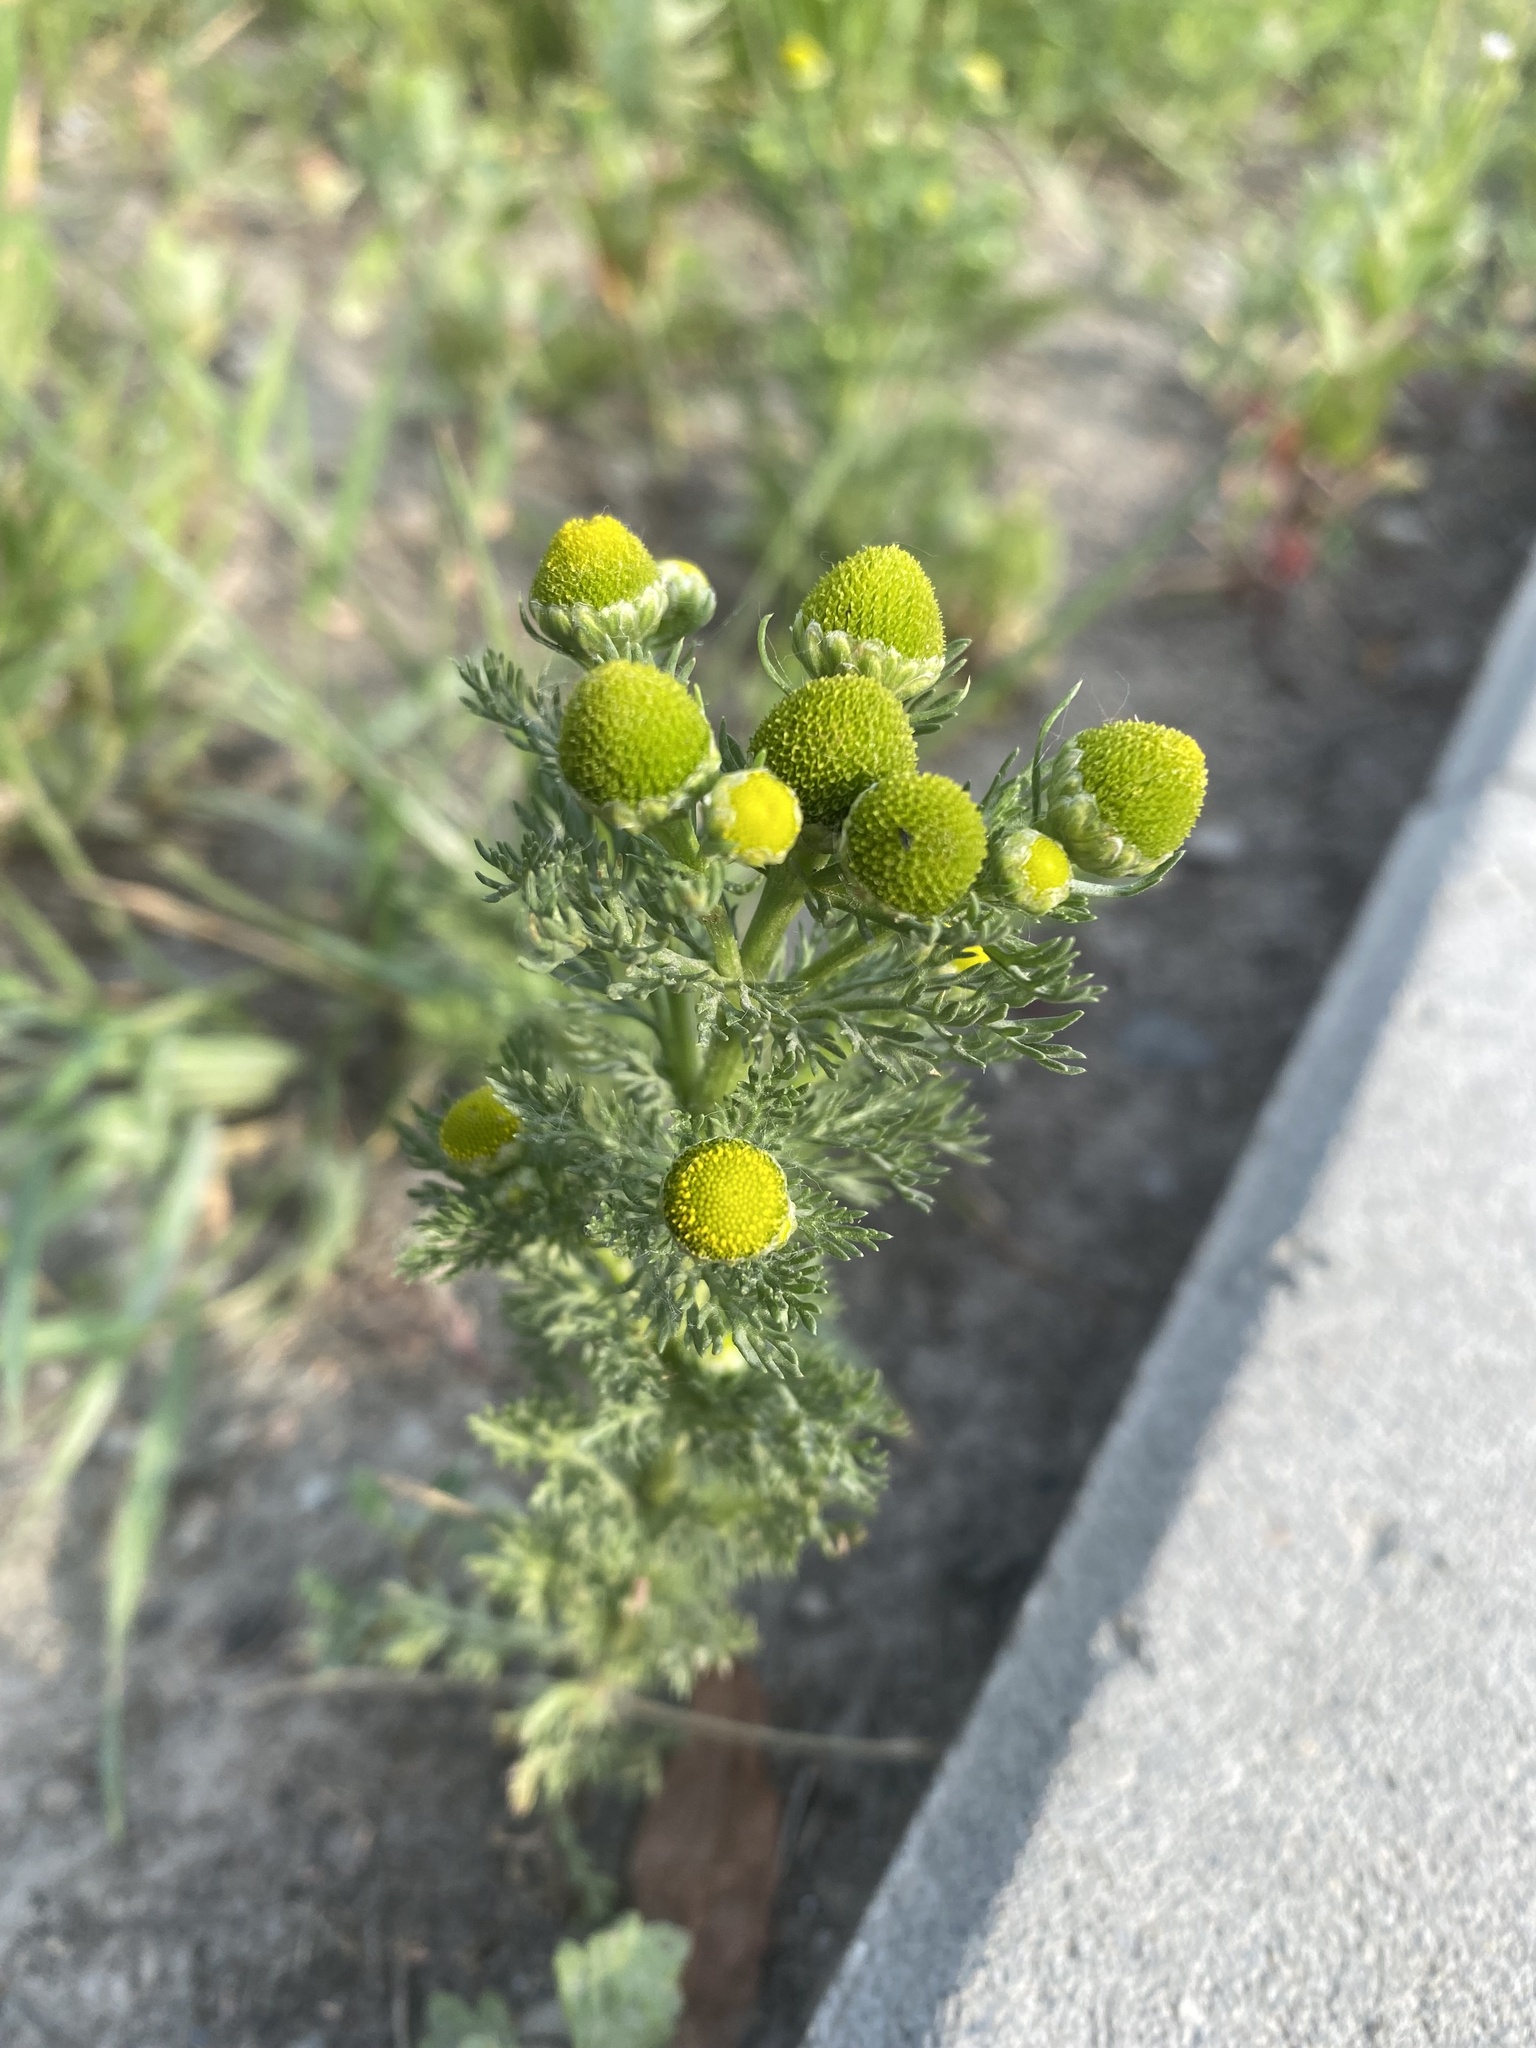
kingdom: Plantae
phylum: Tracheophyta
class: Magnoliopsida
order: Asterales
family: Asteraceae
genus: Matricaria
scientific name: Matricaria discoidea
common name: Disc mayweed
